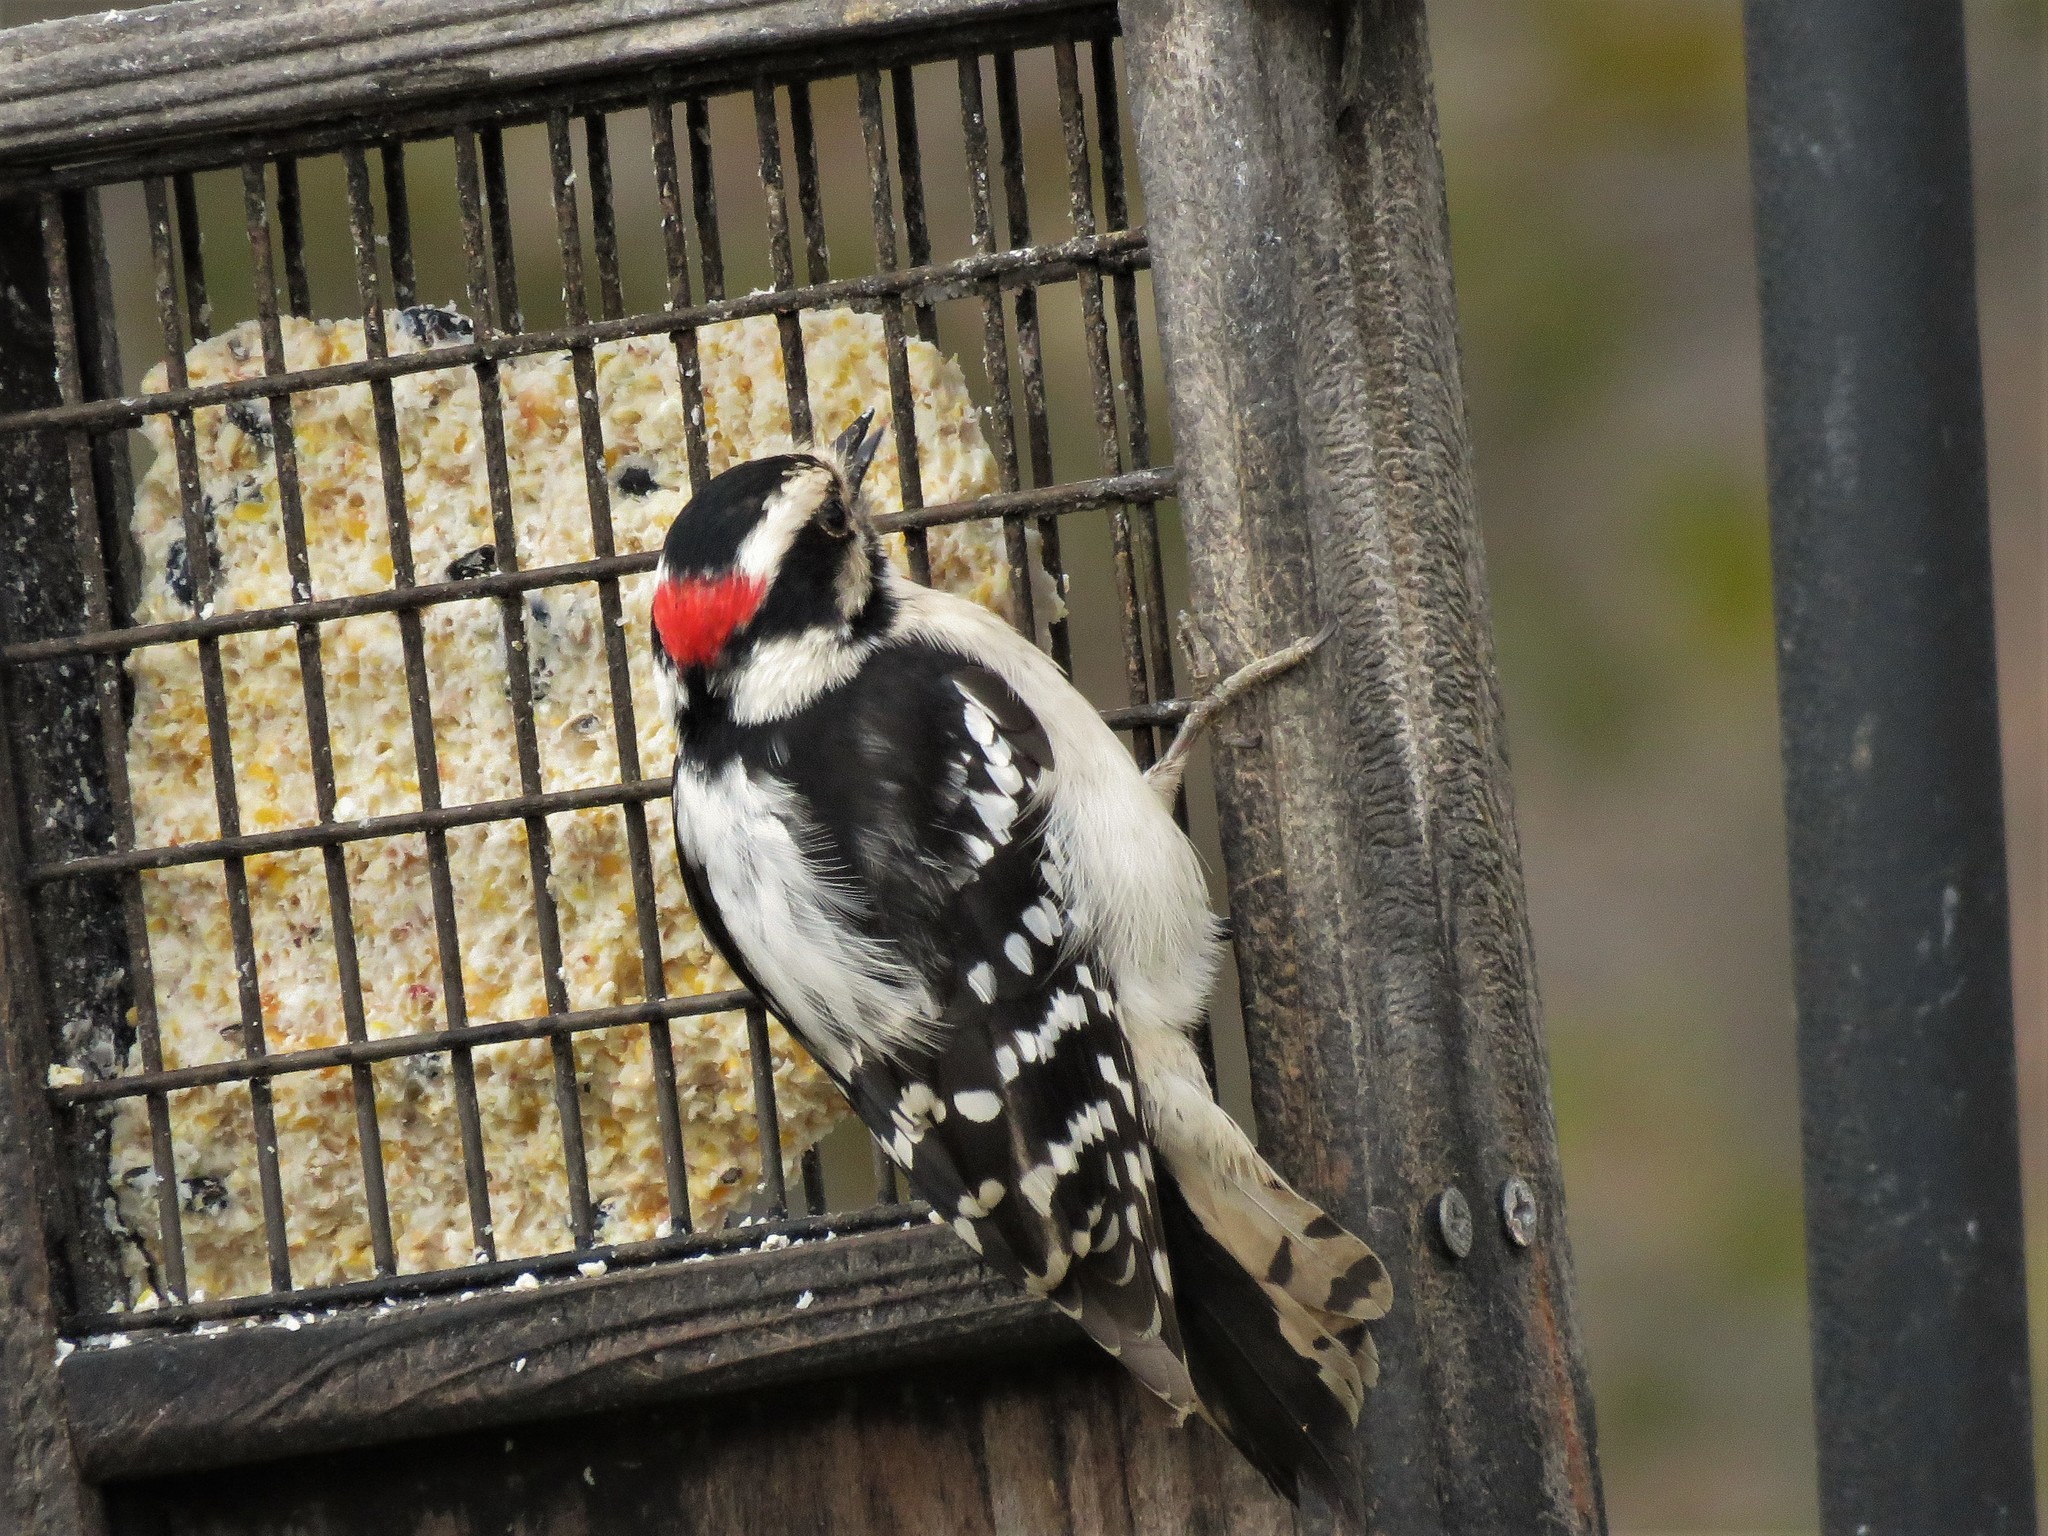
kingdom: Animalia
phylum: Chordata
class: Aves
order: Piciformes
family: Picidae
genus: Dryobates
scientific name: Dryobates pubescens
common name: Downy woodpecker
